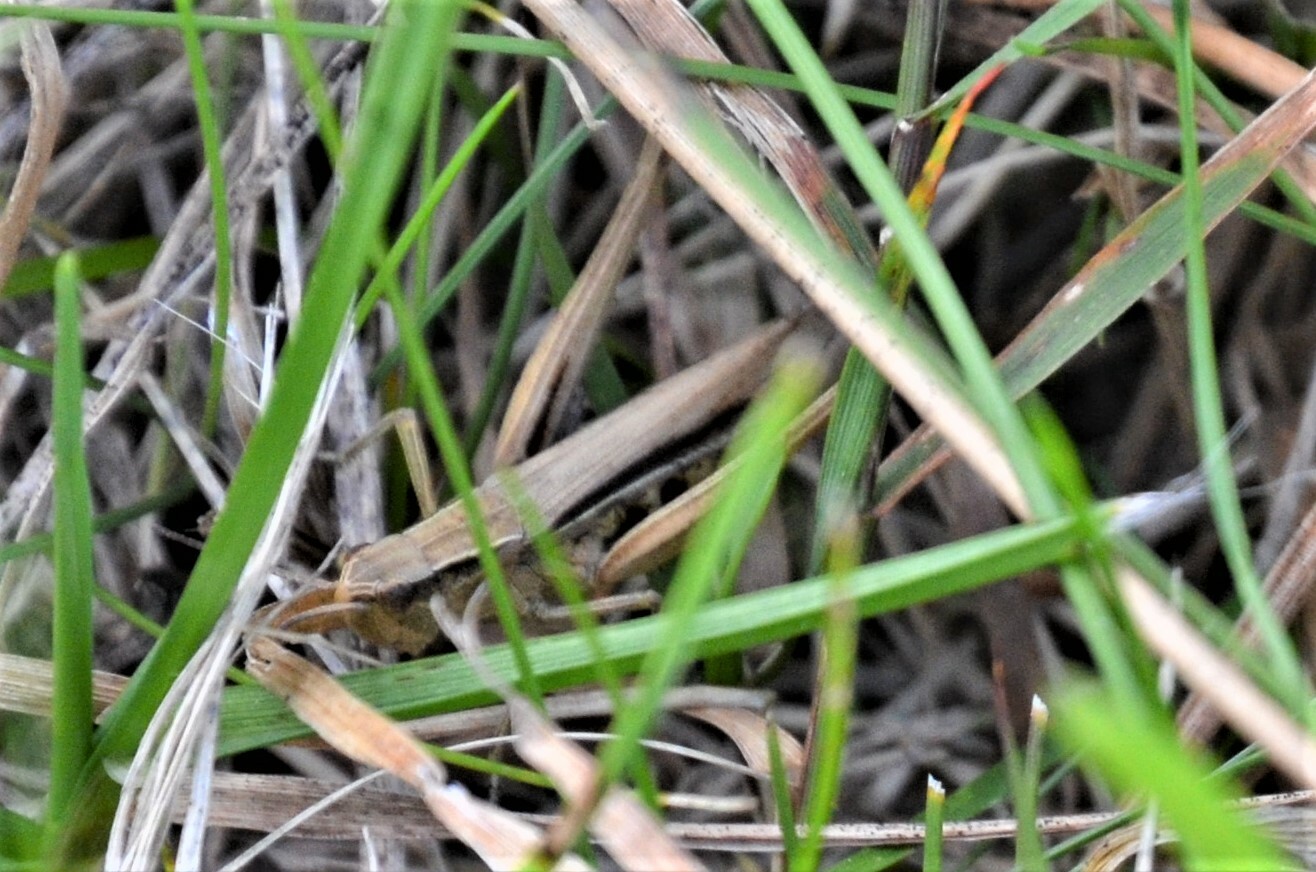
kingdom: Animalia
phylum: Arthropoda
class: Insecta
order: Orthoptera
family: Acrididae
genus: Chorthippus
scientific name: Chorthippus albomarginatus
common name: Lesser marsh grasshopper
